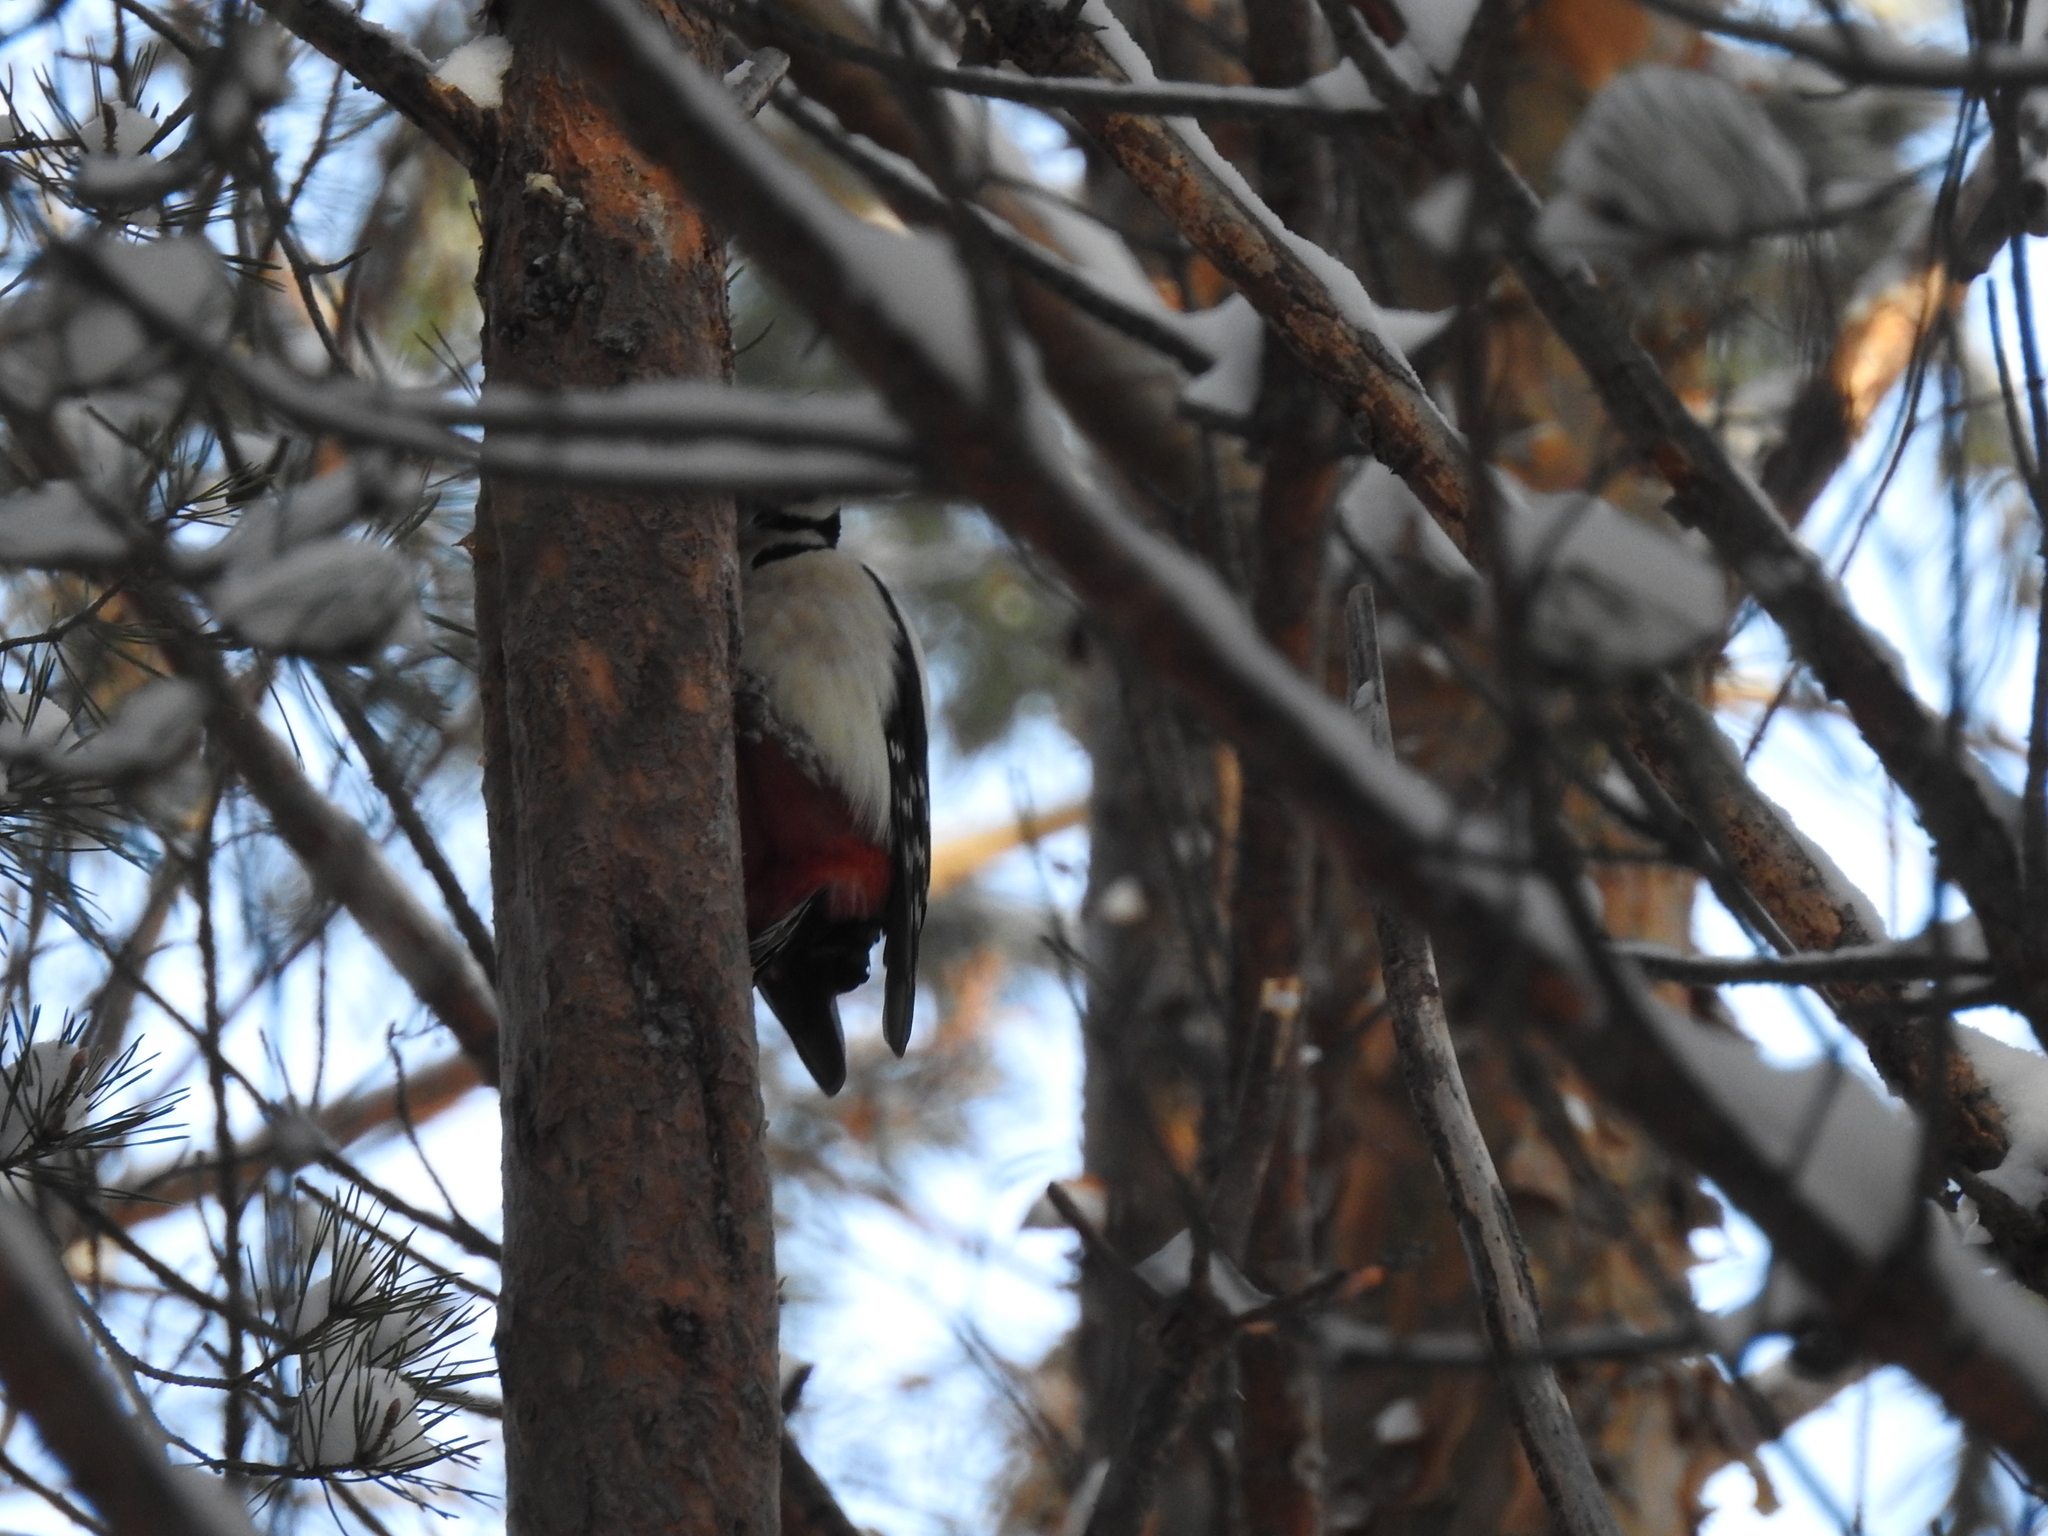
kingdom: Animalia
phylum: Chordata
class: Aves
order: Piciformes
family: Picidae
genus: Dendrocopos
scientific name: Dendrocopos major
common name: Great spotted woodpecker
